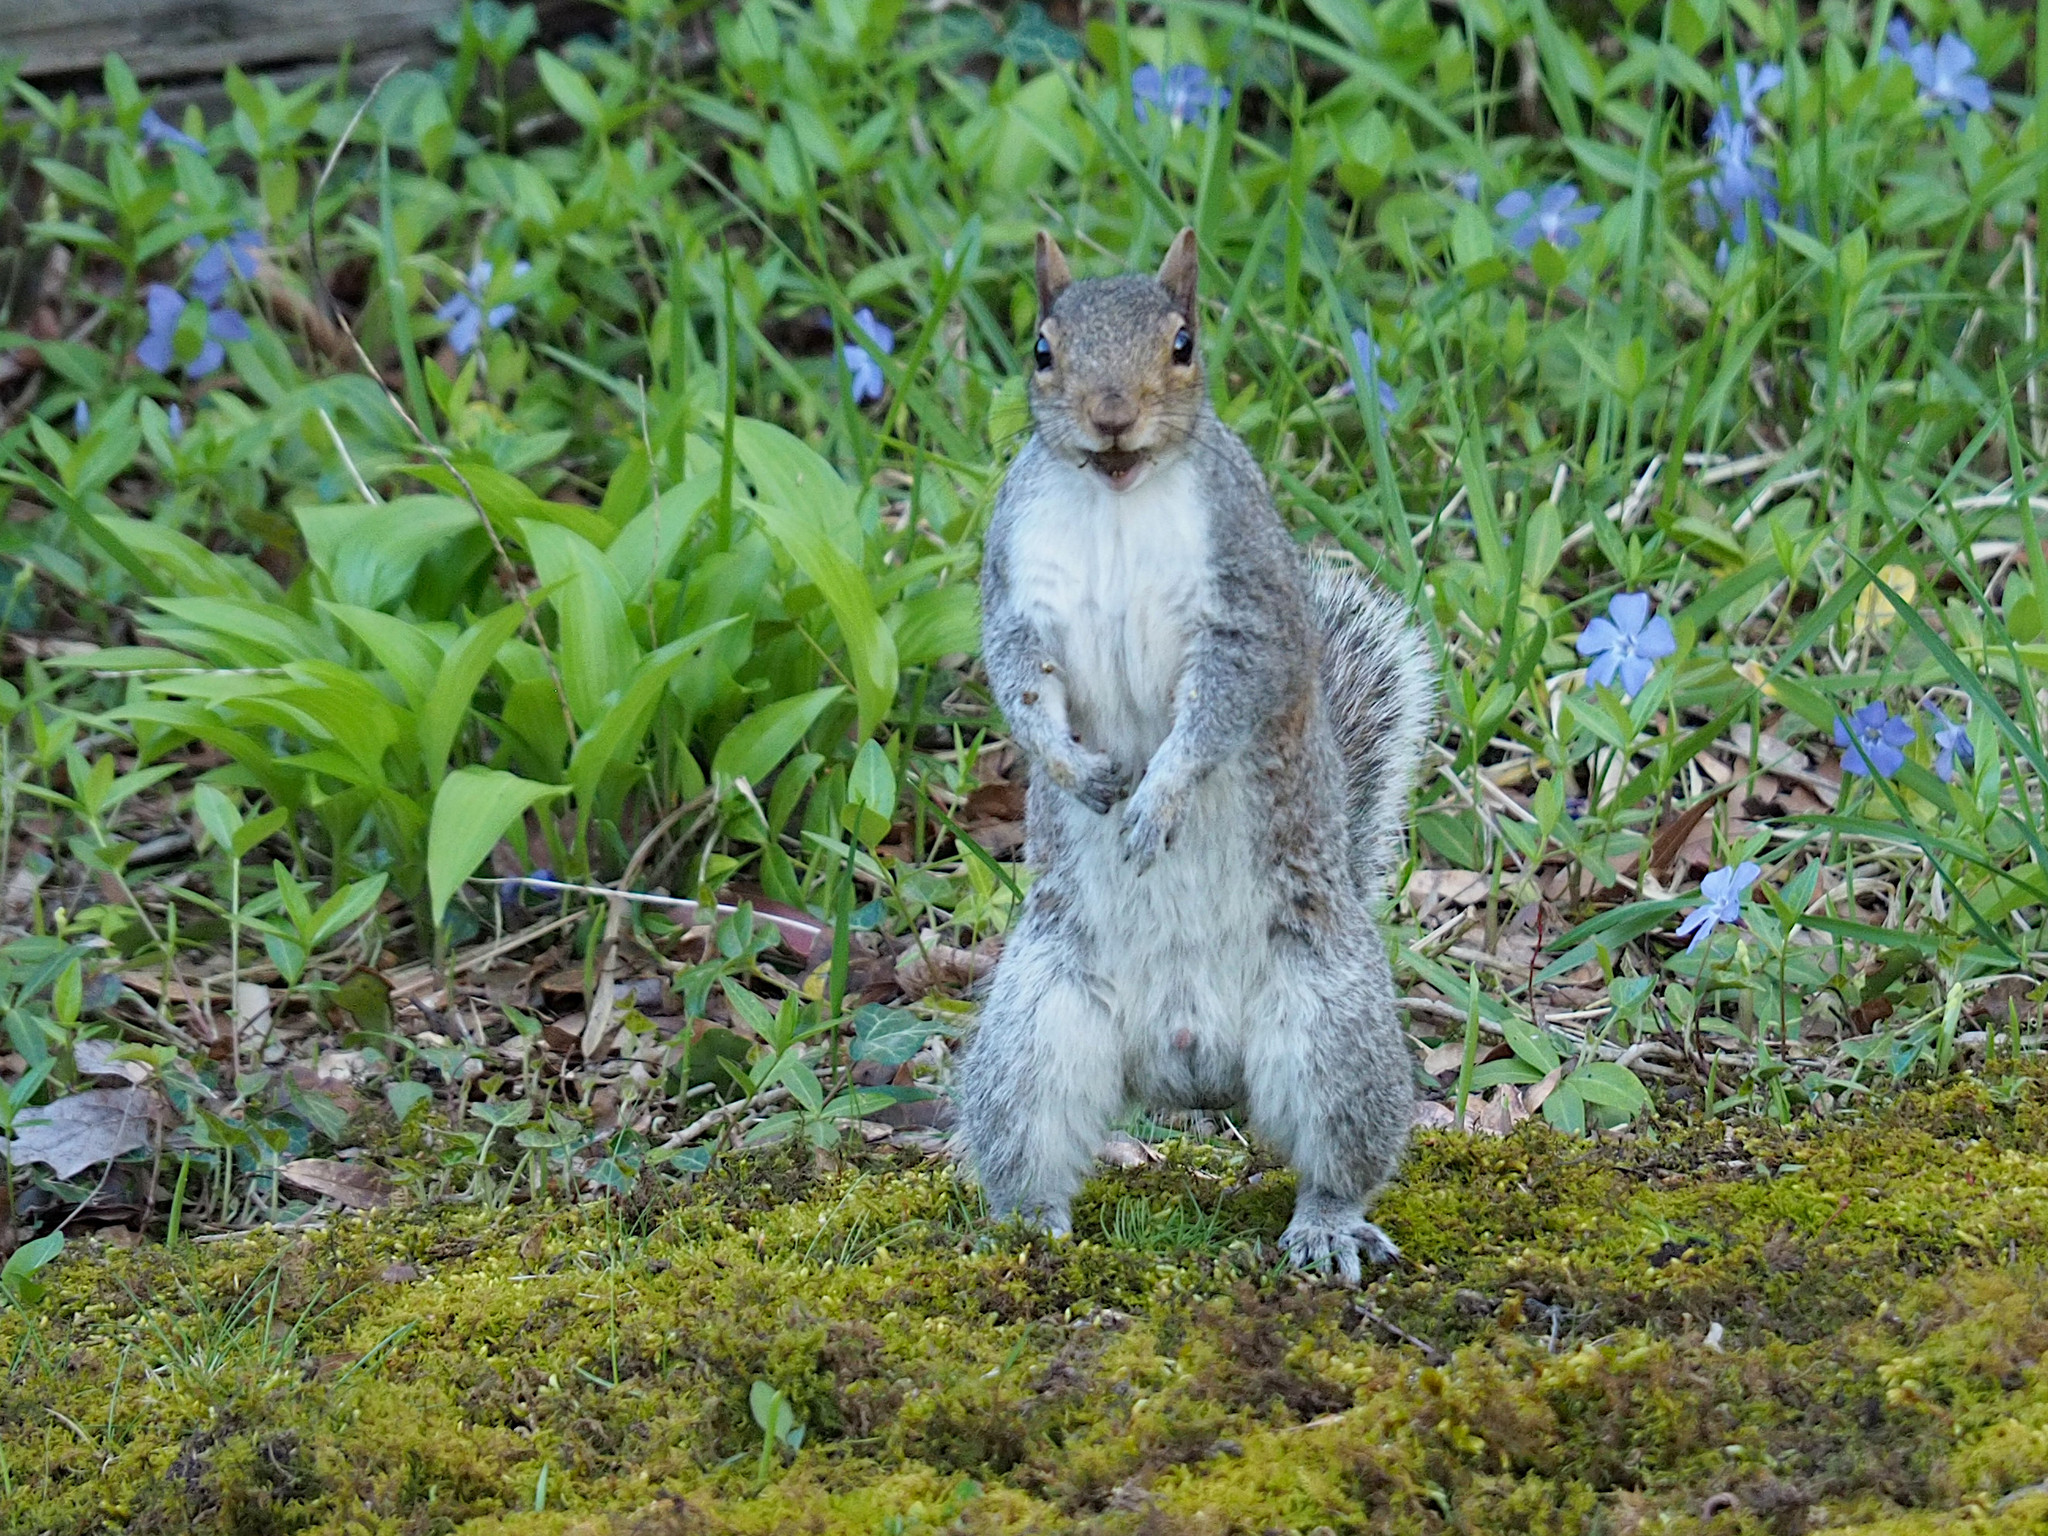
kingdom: Animalia
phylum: Chordata
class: Mammalia
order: Rodentia
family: Sciuridae
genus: Sciurus
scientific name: Sciurus carolinensis
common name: Eastern gray squirrel
